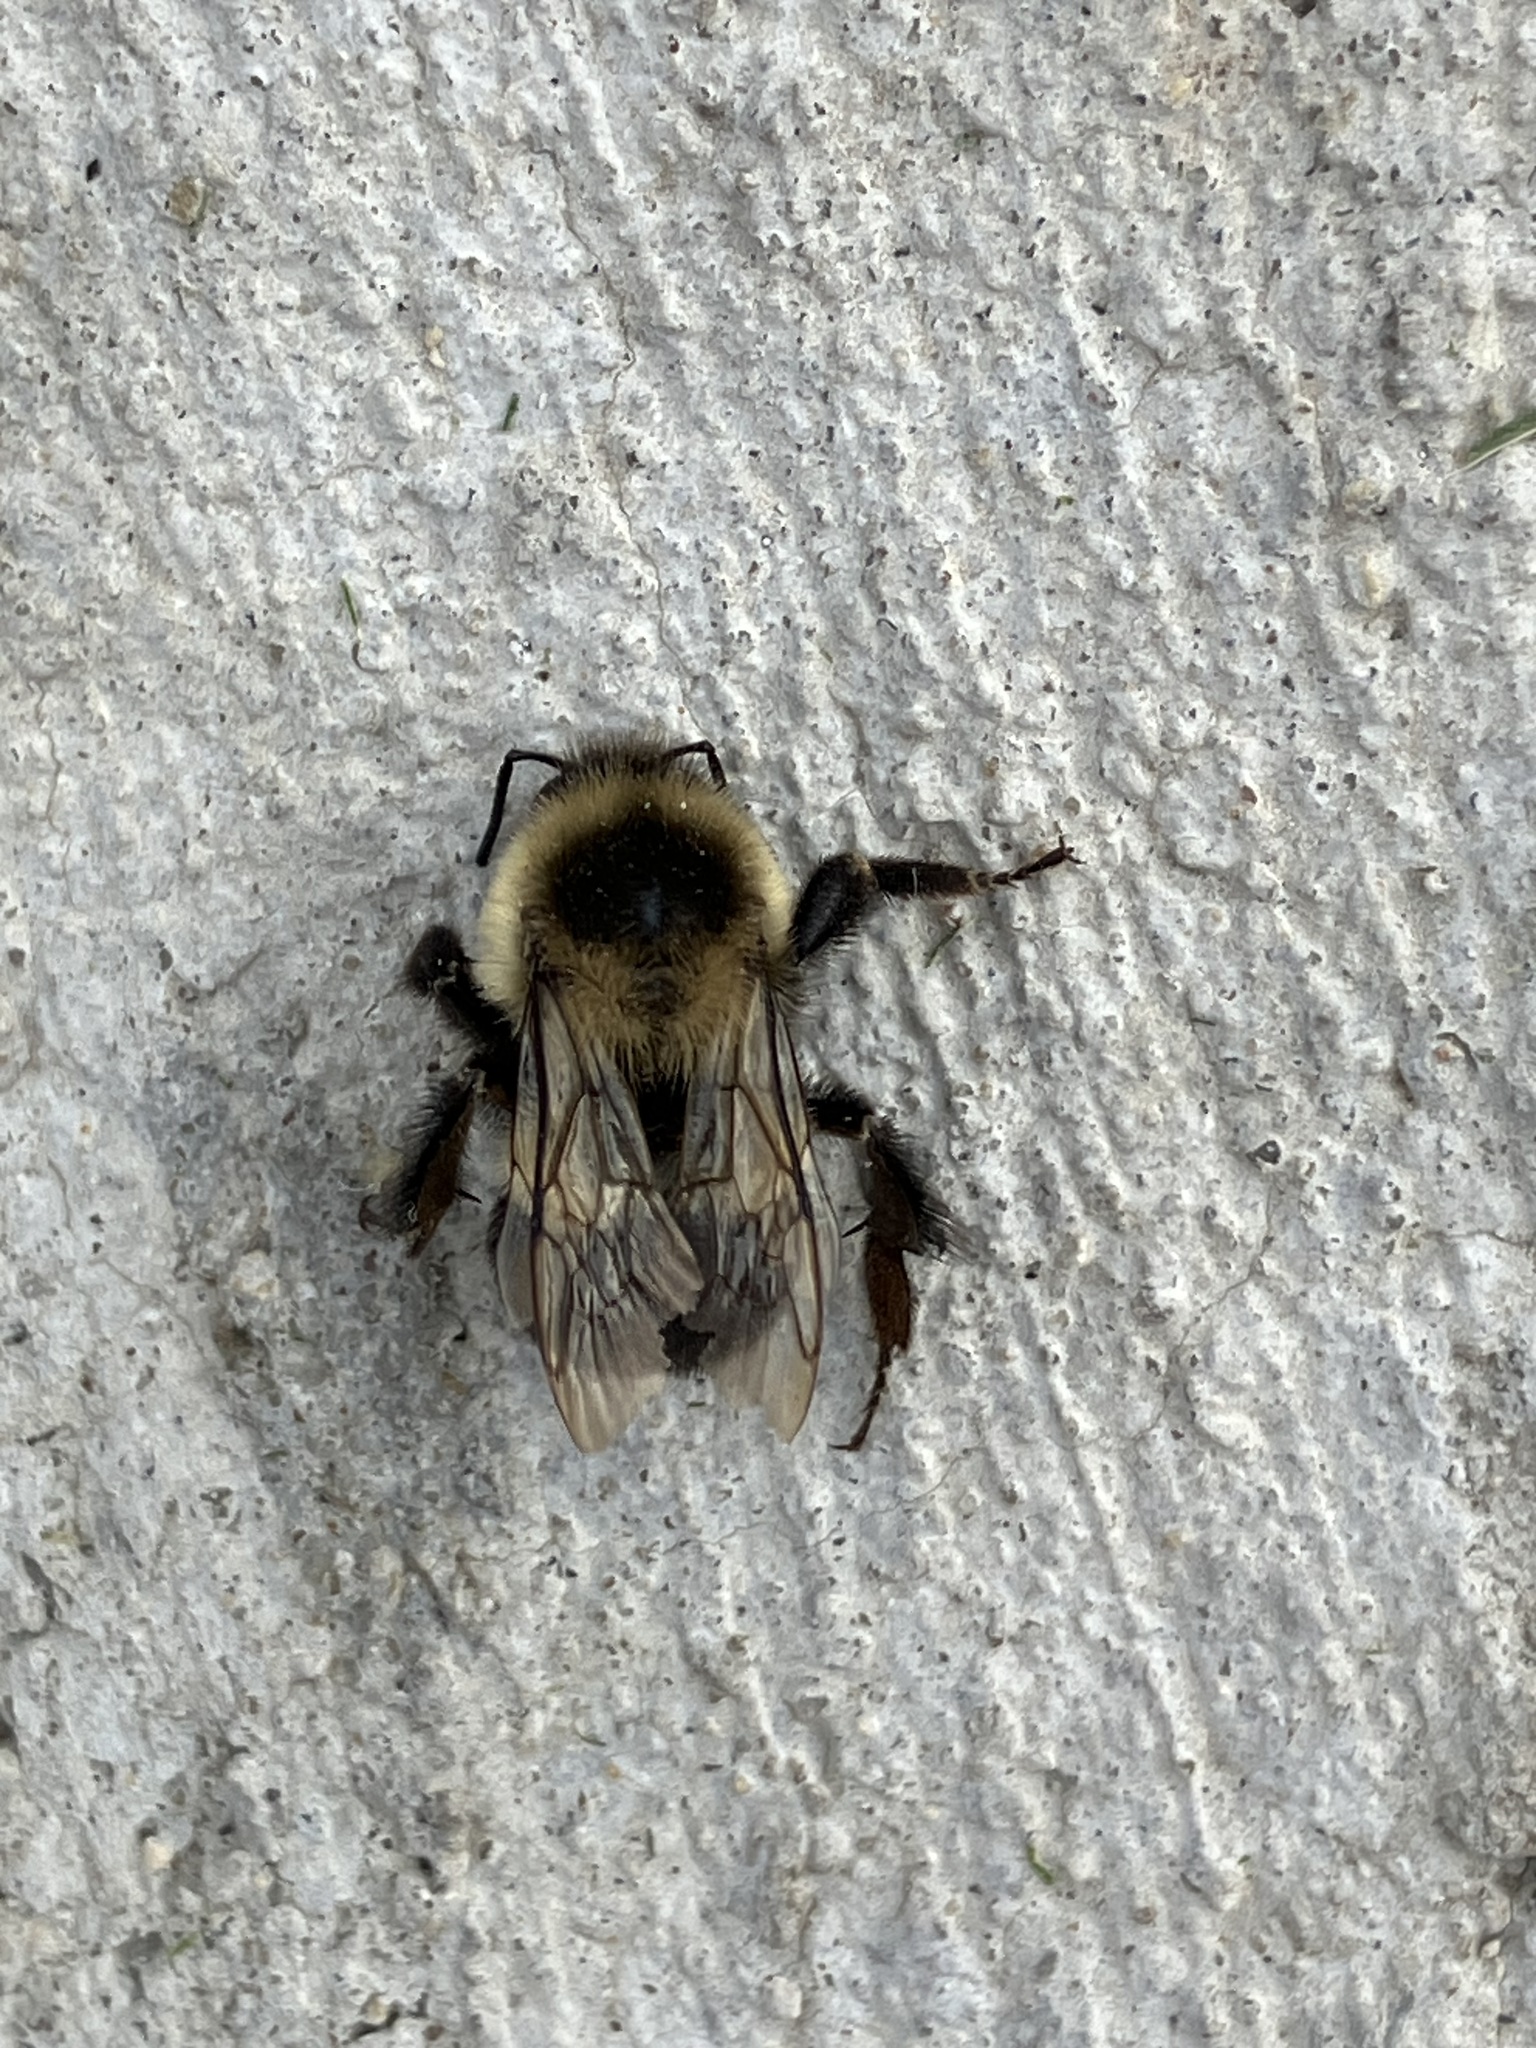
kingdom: Animalia
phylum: Arthropoda
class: Insecta
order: Hymenoptera
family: Apidae
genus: Bombus
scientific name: Bombus impatiens
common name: Common eastern bumble bee
